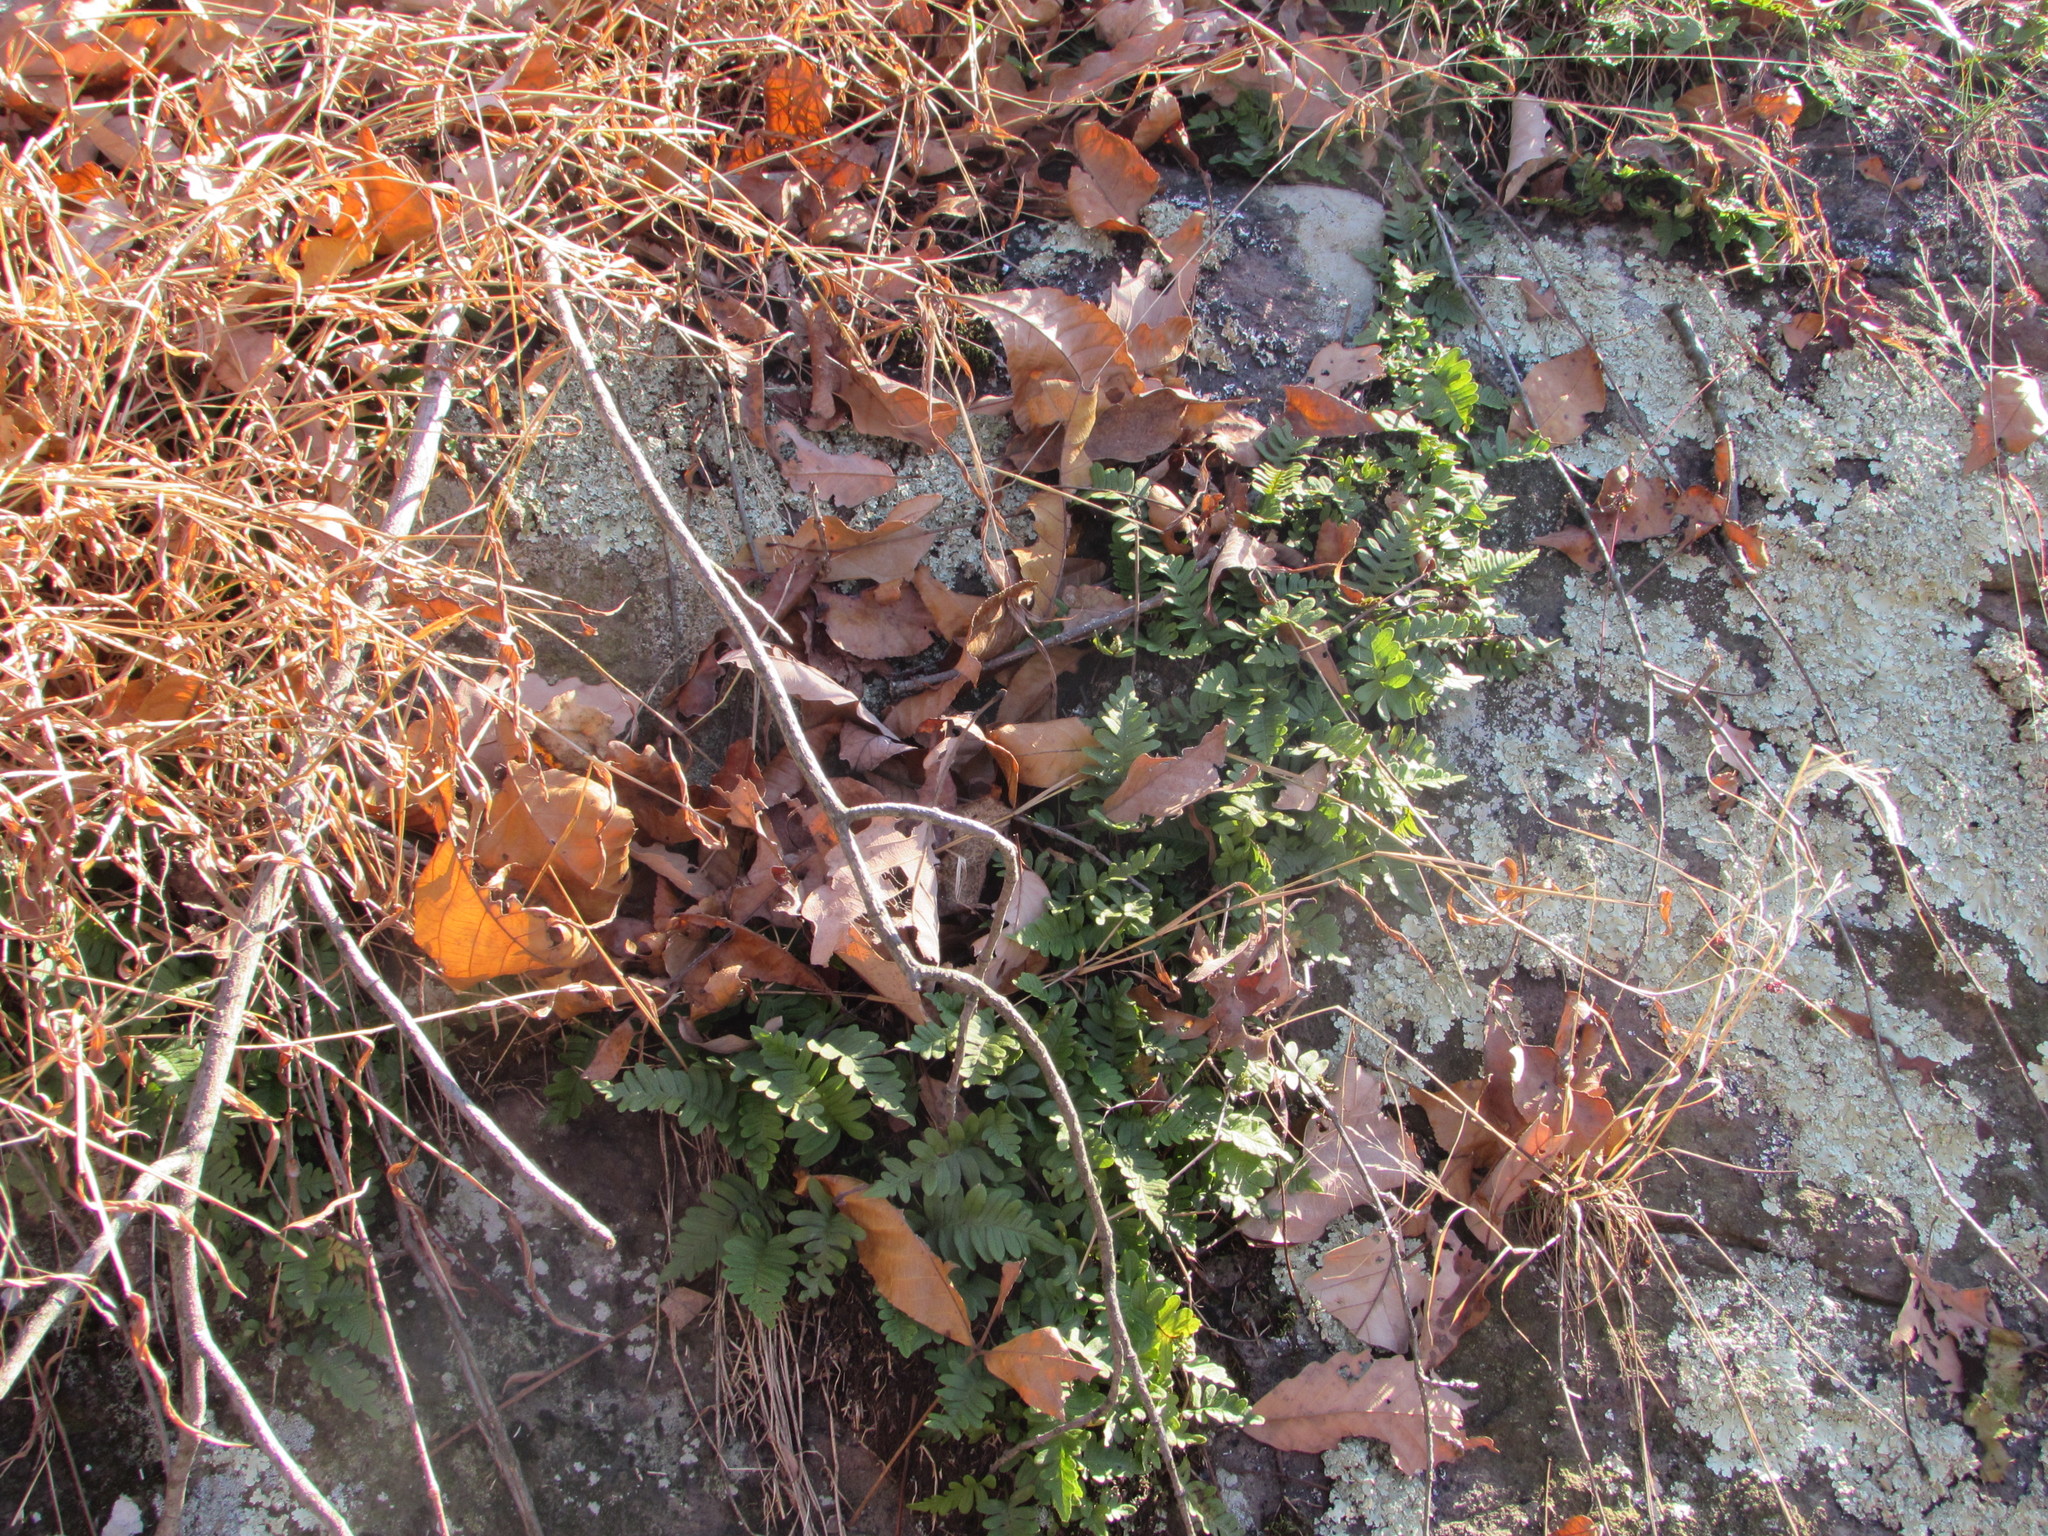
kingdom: Plantae
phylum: Tracheophyta
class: Polypodiopsida
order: Polypodiales
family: Polypodiaceae
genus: Polypodium
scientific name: Polypodium virginianum
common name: American wall fern
